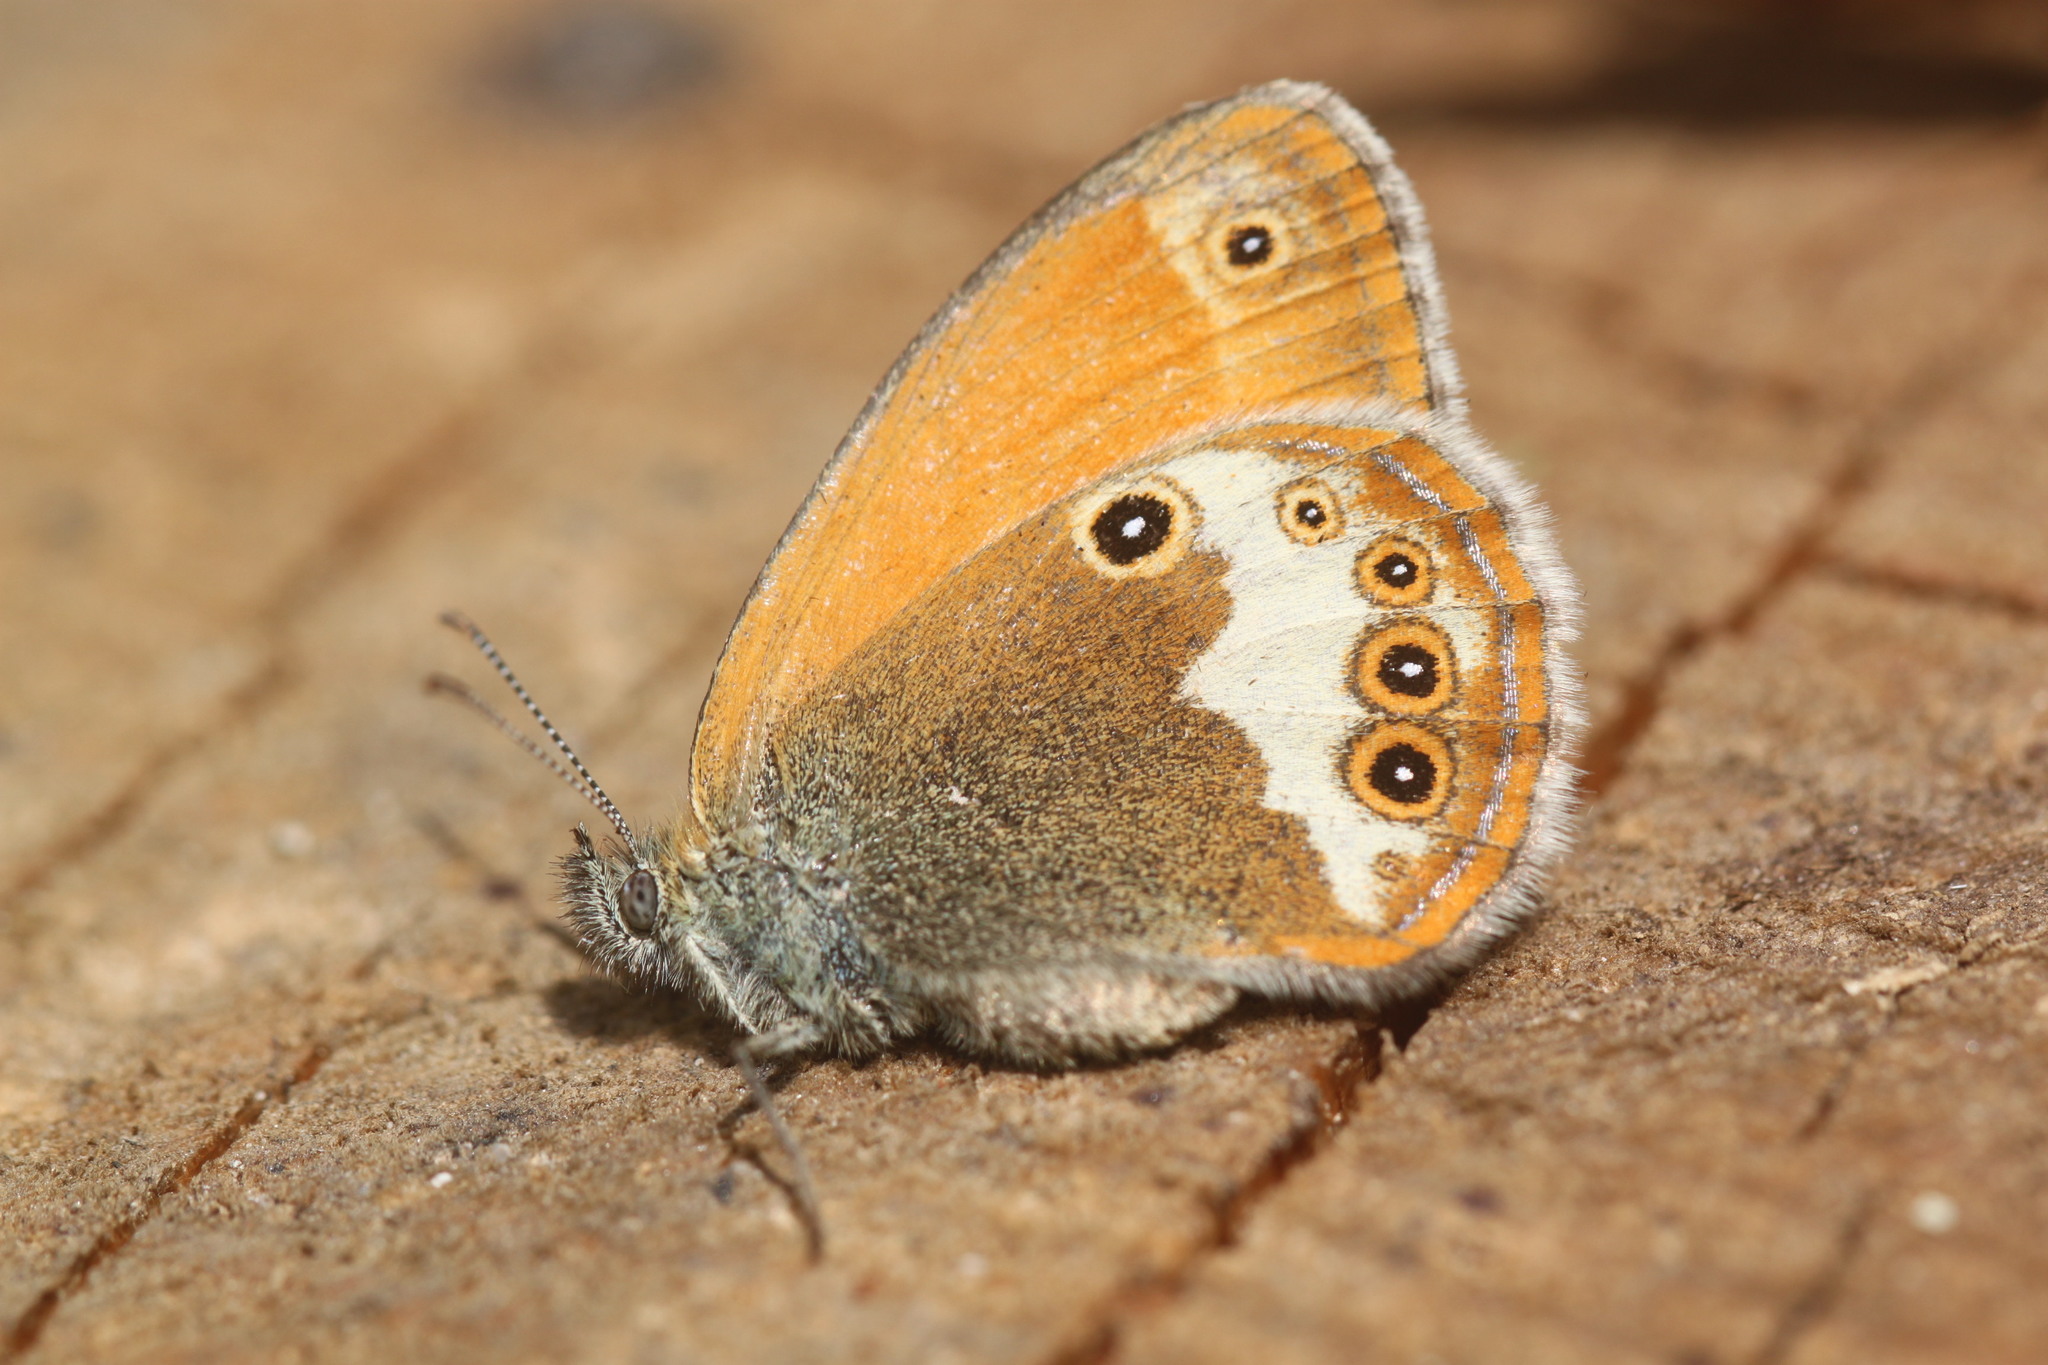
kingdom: Animalia
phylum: Arthropoda
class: Insecta
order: Lepidoptera
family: Nymphalidae
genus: Coenonympha
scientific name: Coenonympha arcania
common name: Pearly heath
